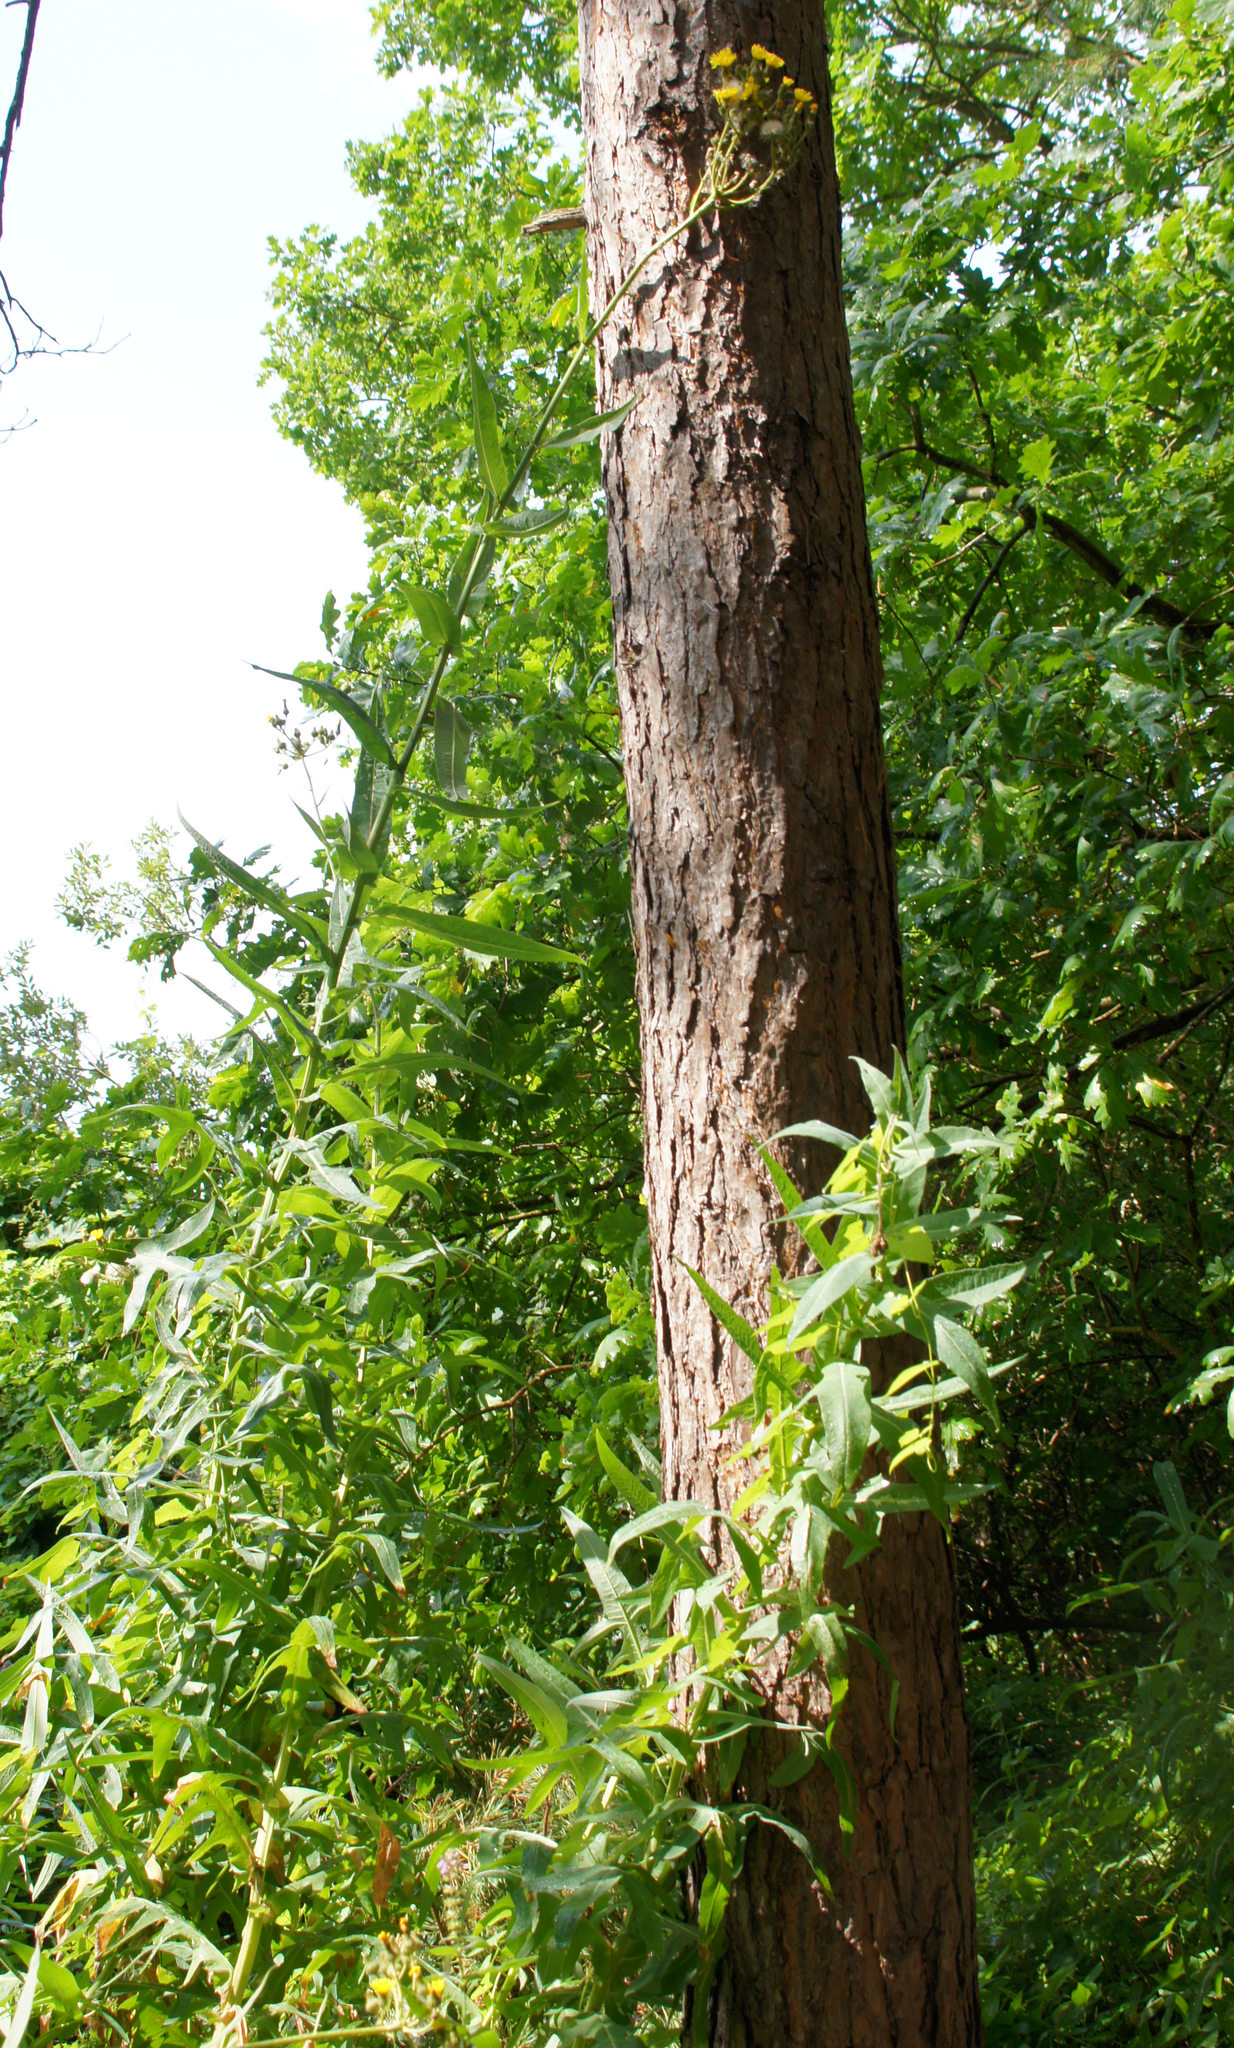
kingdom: Plantae
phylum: Tracheophyta
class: Magnoliopsida
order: Asterales
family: Asteraceae
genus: Sonchus
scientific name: Sonchus palustris
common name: Marsh sow-thistle
